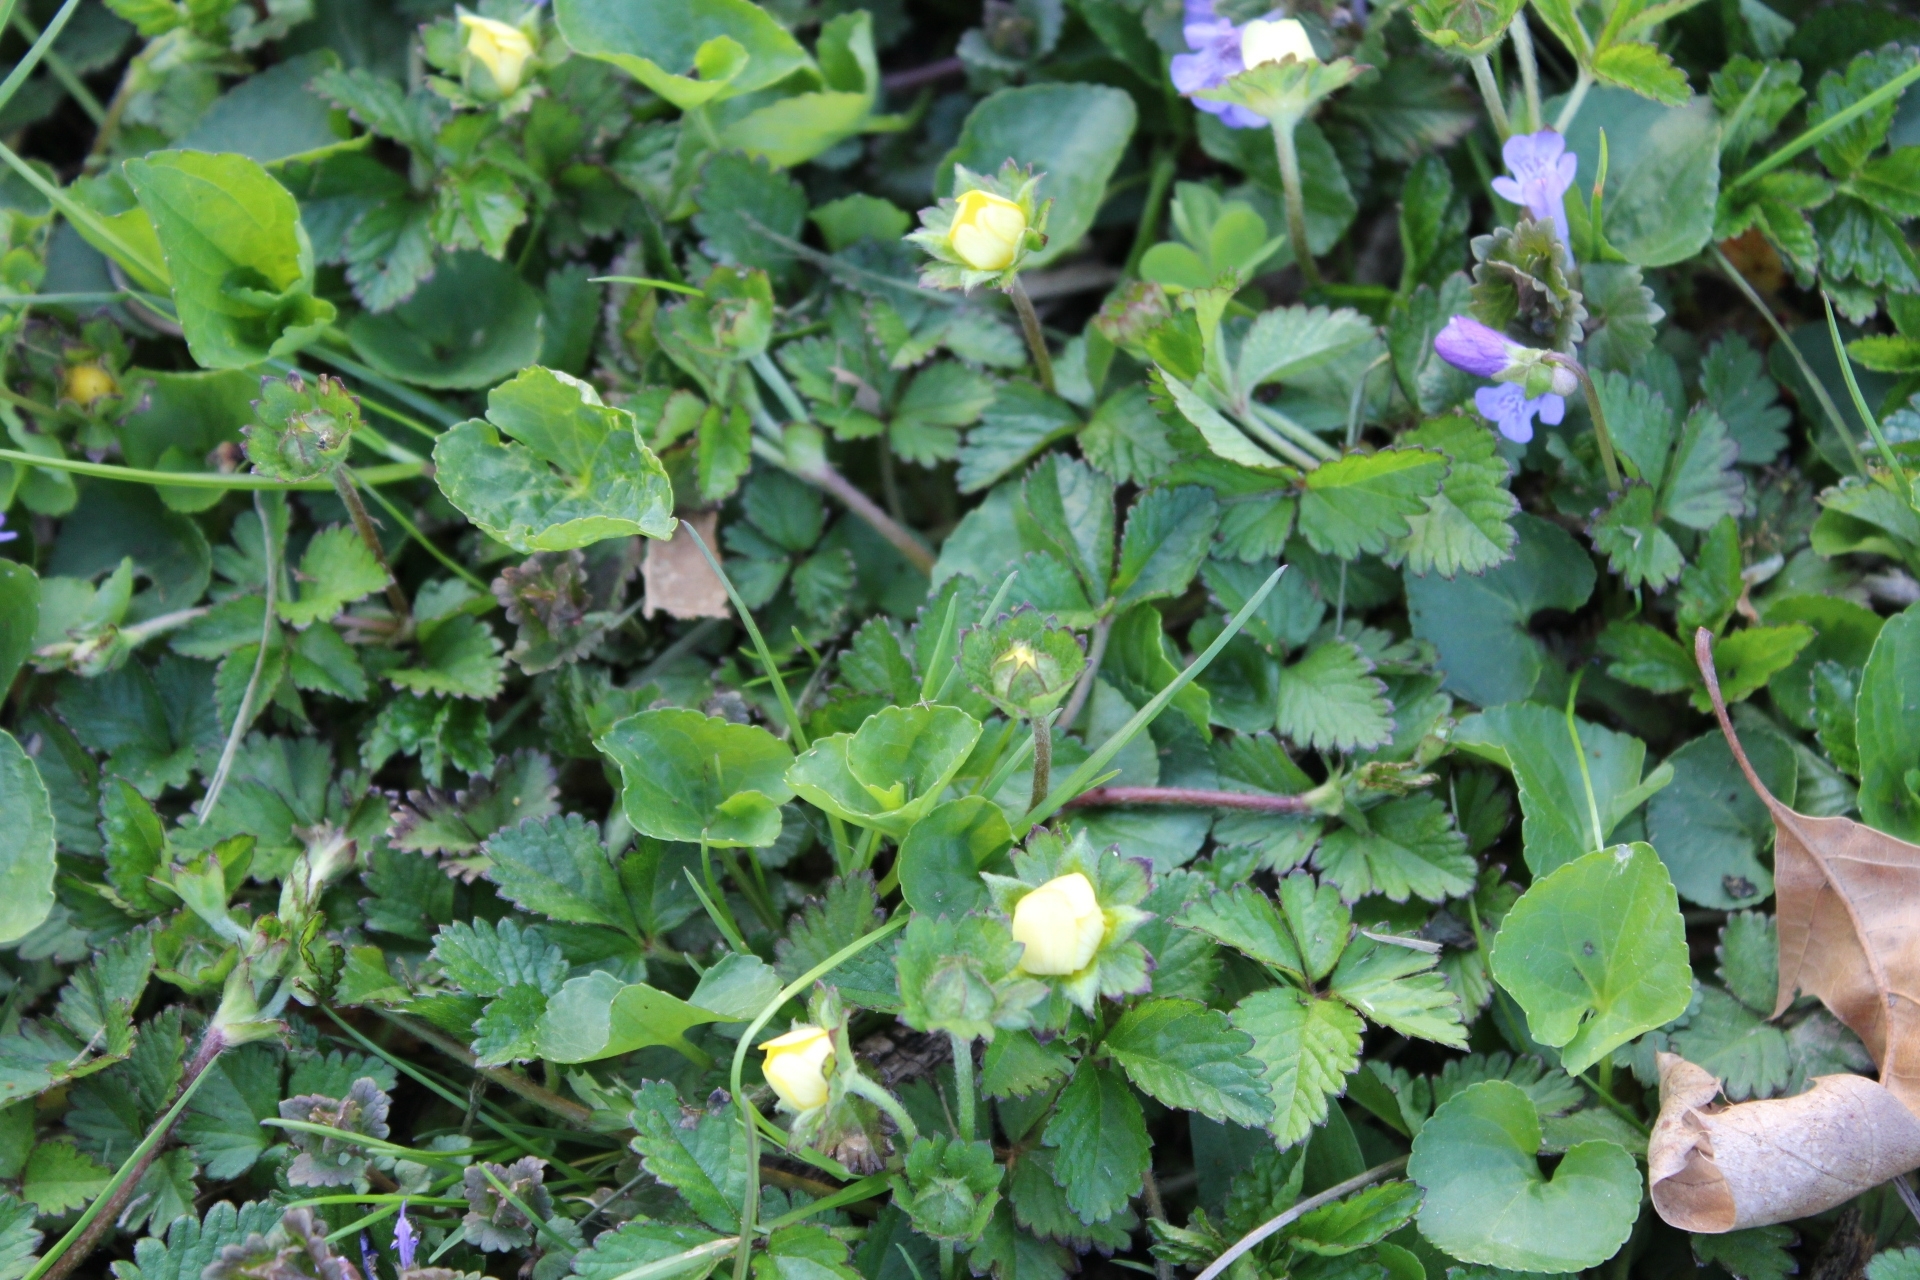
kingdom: Plantae
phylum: Tracheophyta
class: Magnoliopsida
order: Rosales
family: Rosaceae
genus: Potentilla
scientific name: Potentilla indica
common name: Yellow-flowered strawberry
